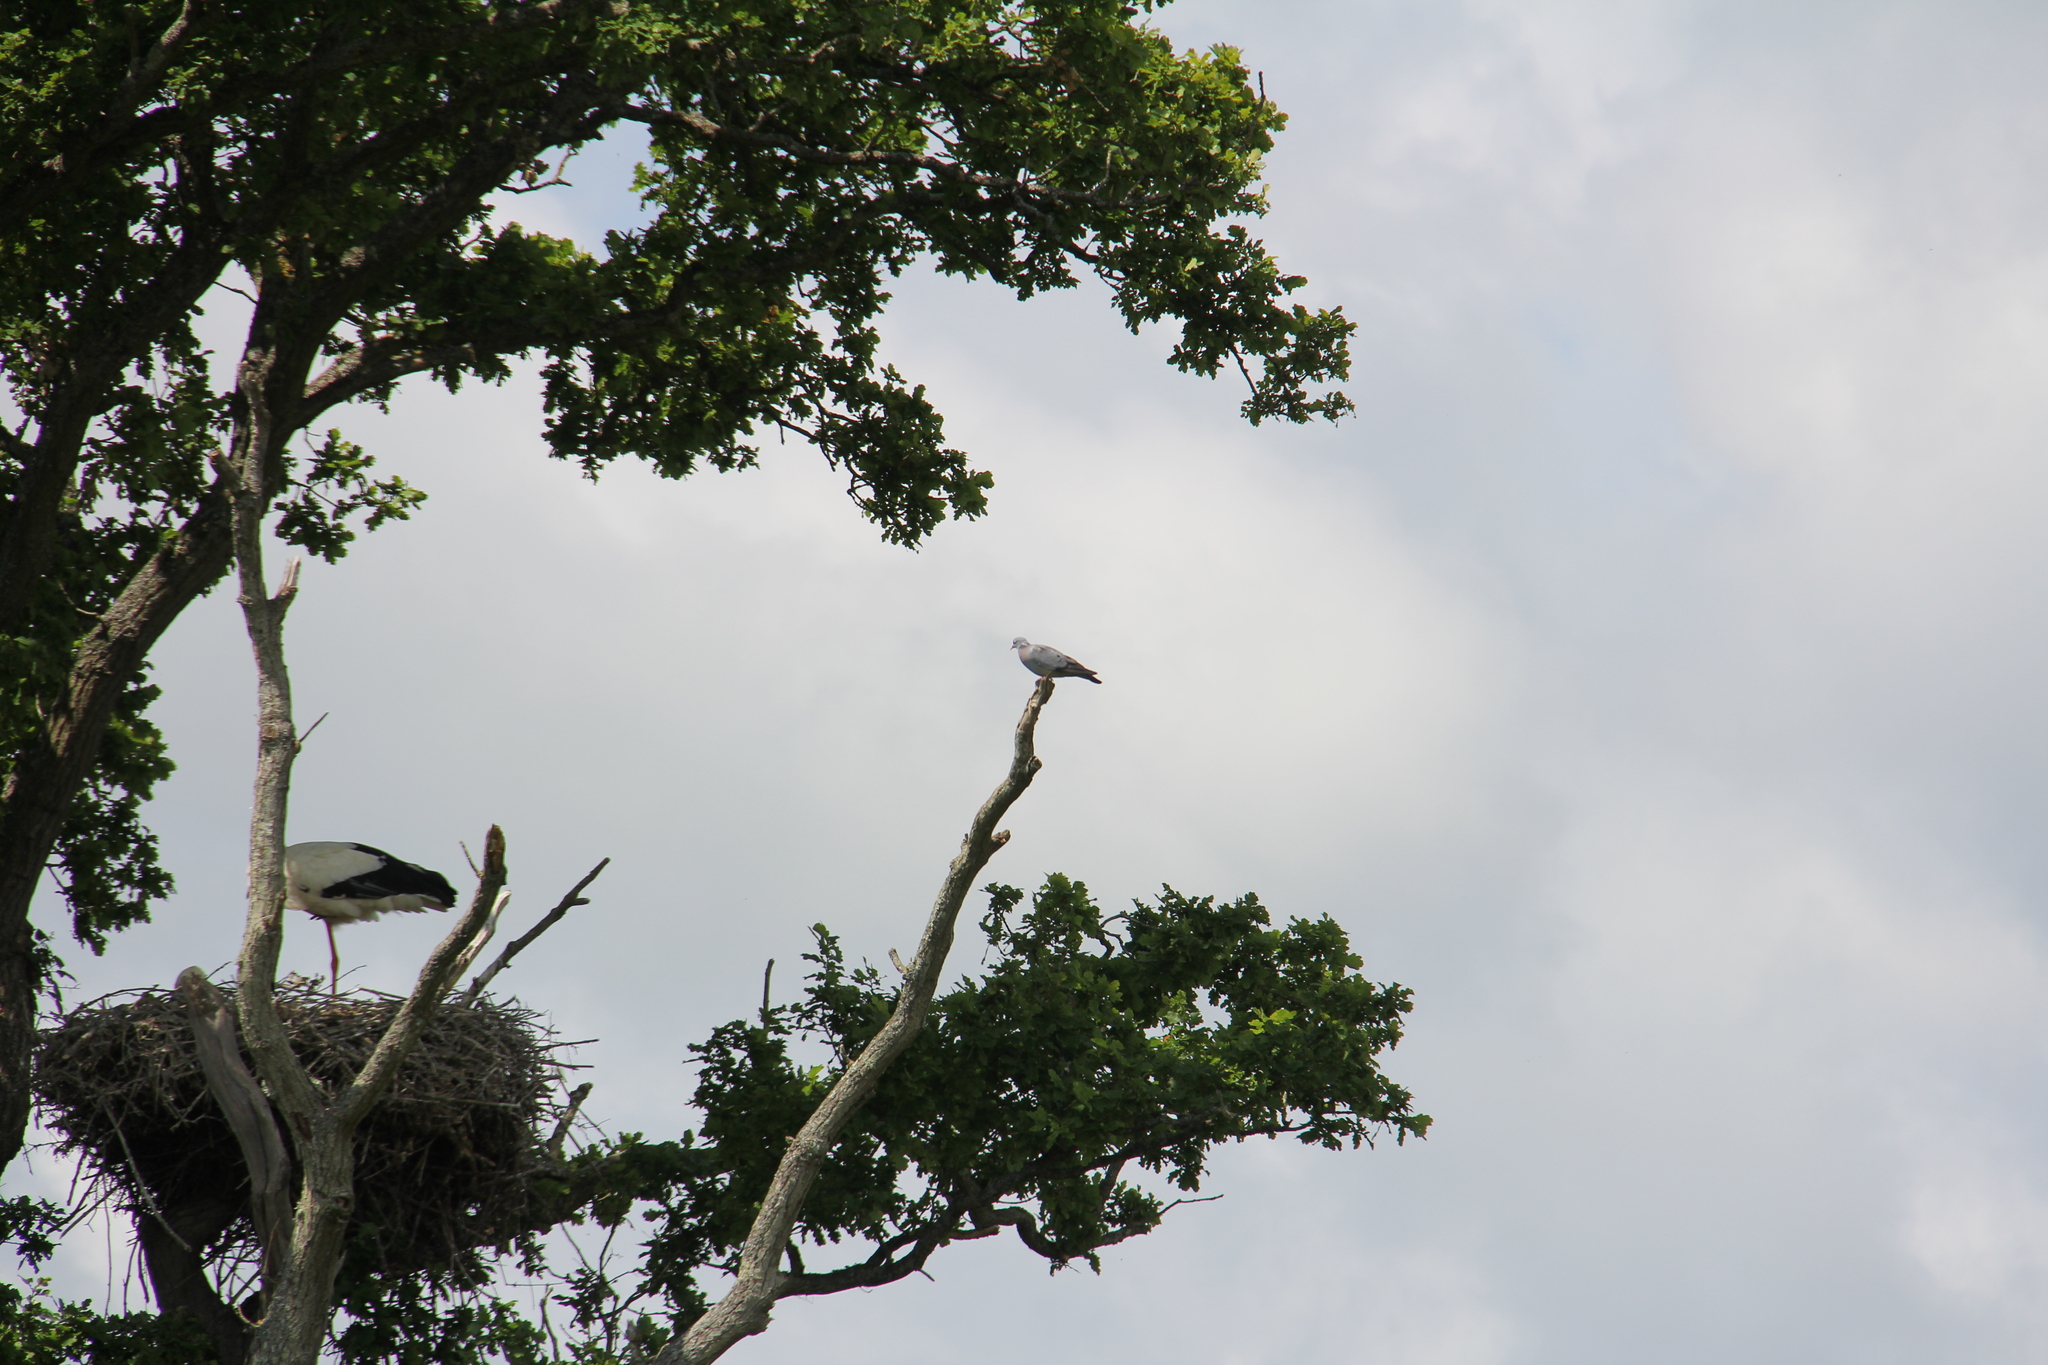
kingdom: Animalia
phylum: Chordata
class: Aves
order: Columbiformes
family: Columbidae
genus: Columba
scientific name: Columba oenas
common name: Stock dove
